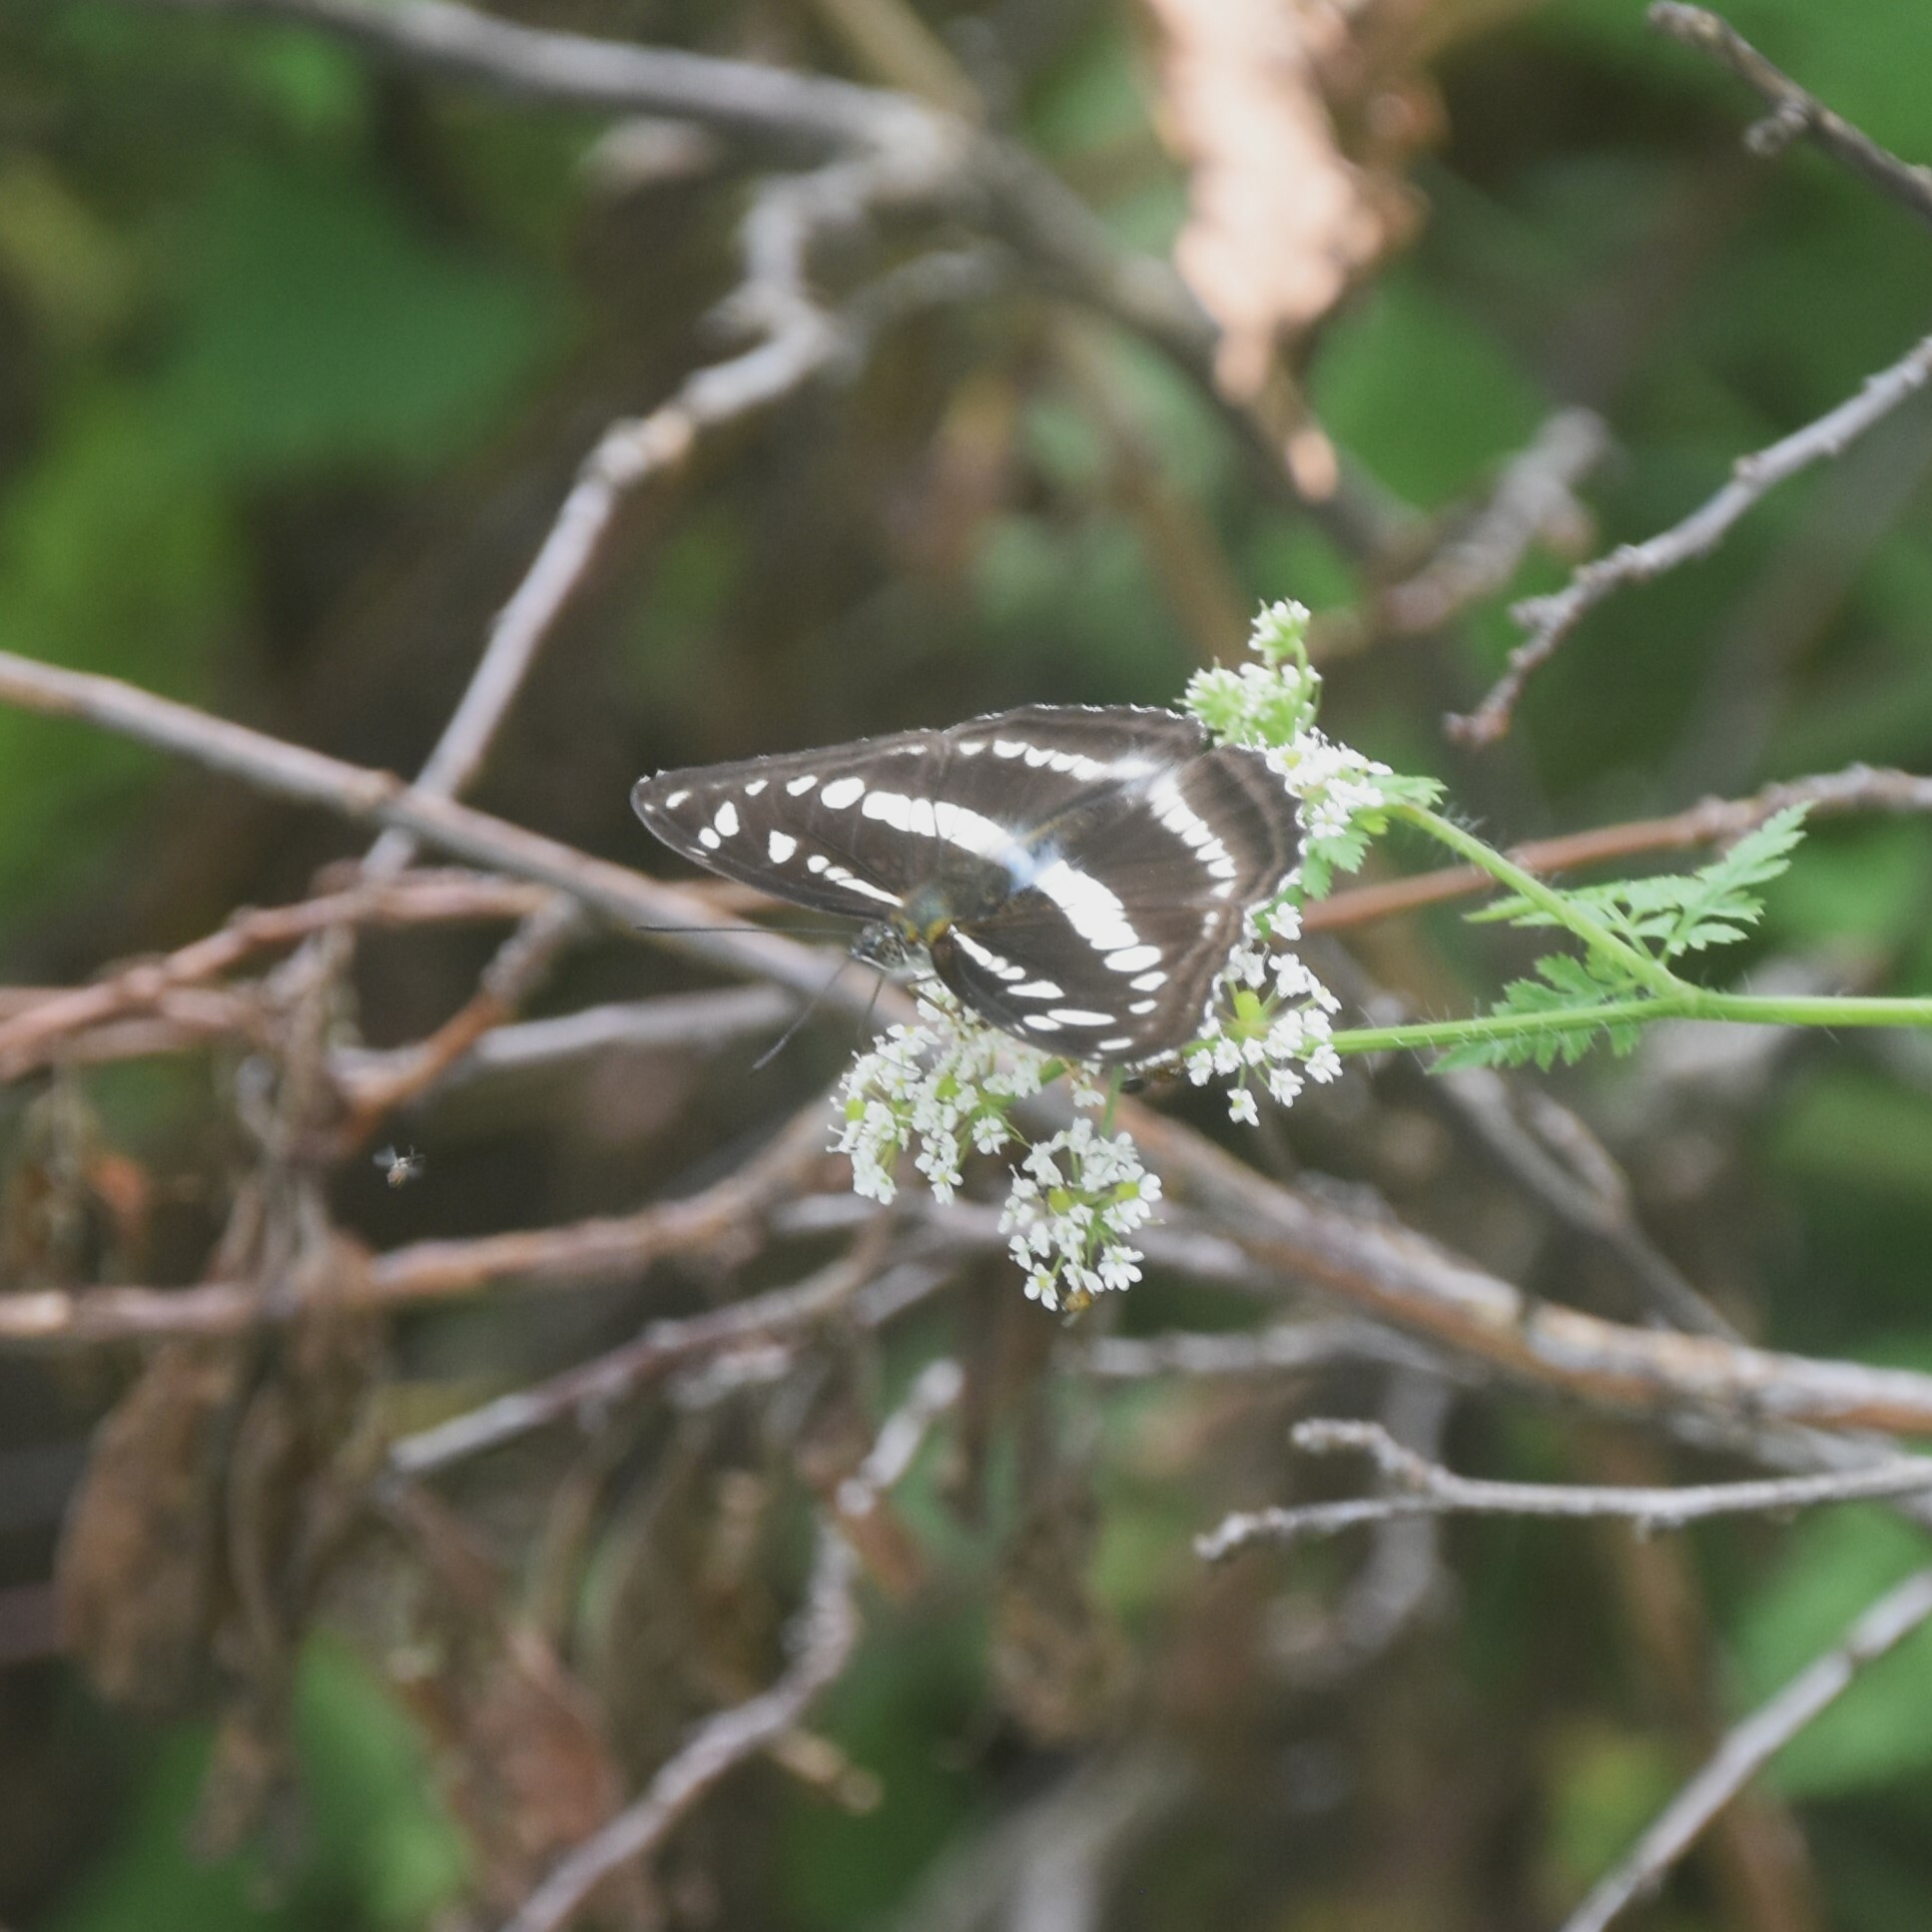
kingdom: Animalia
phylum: Arthropoda
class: Insecta
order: Lepidoptera
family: Nymphalidae
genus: Parathyma
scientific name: Parathyma opalina
